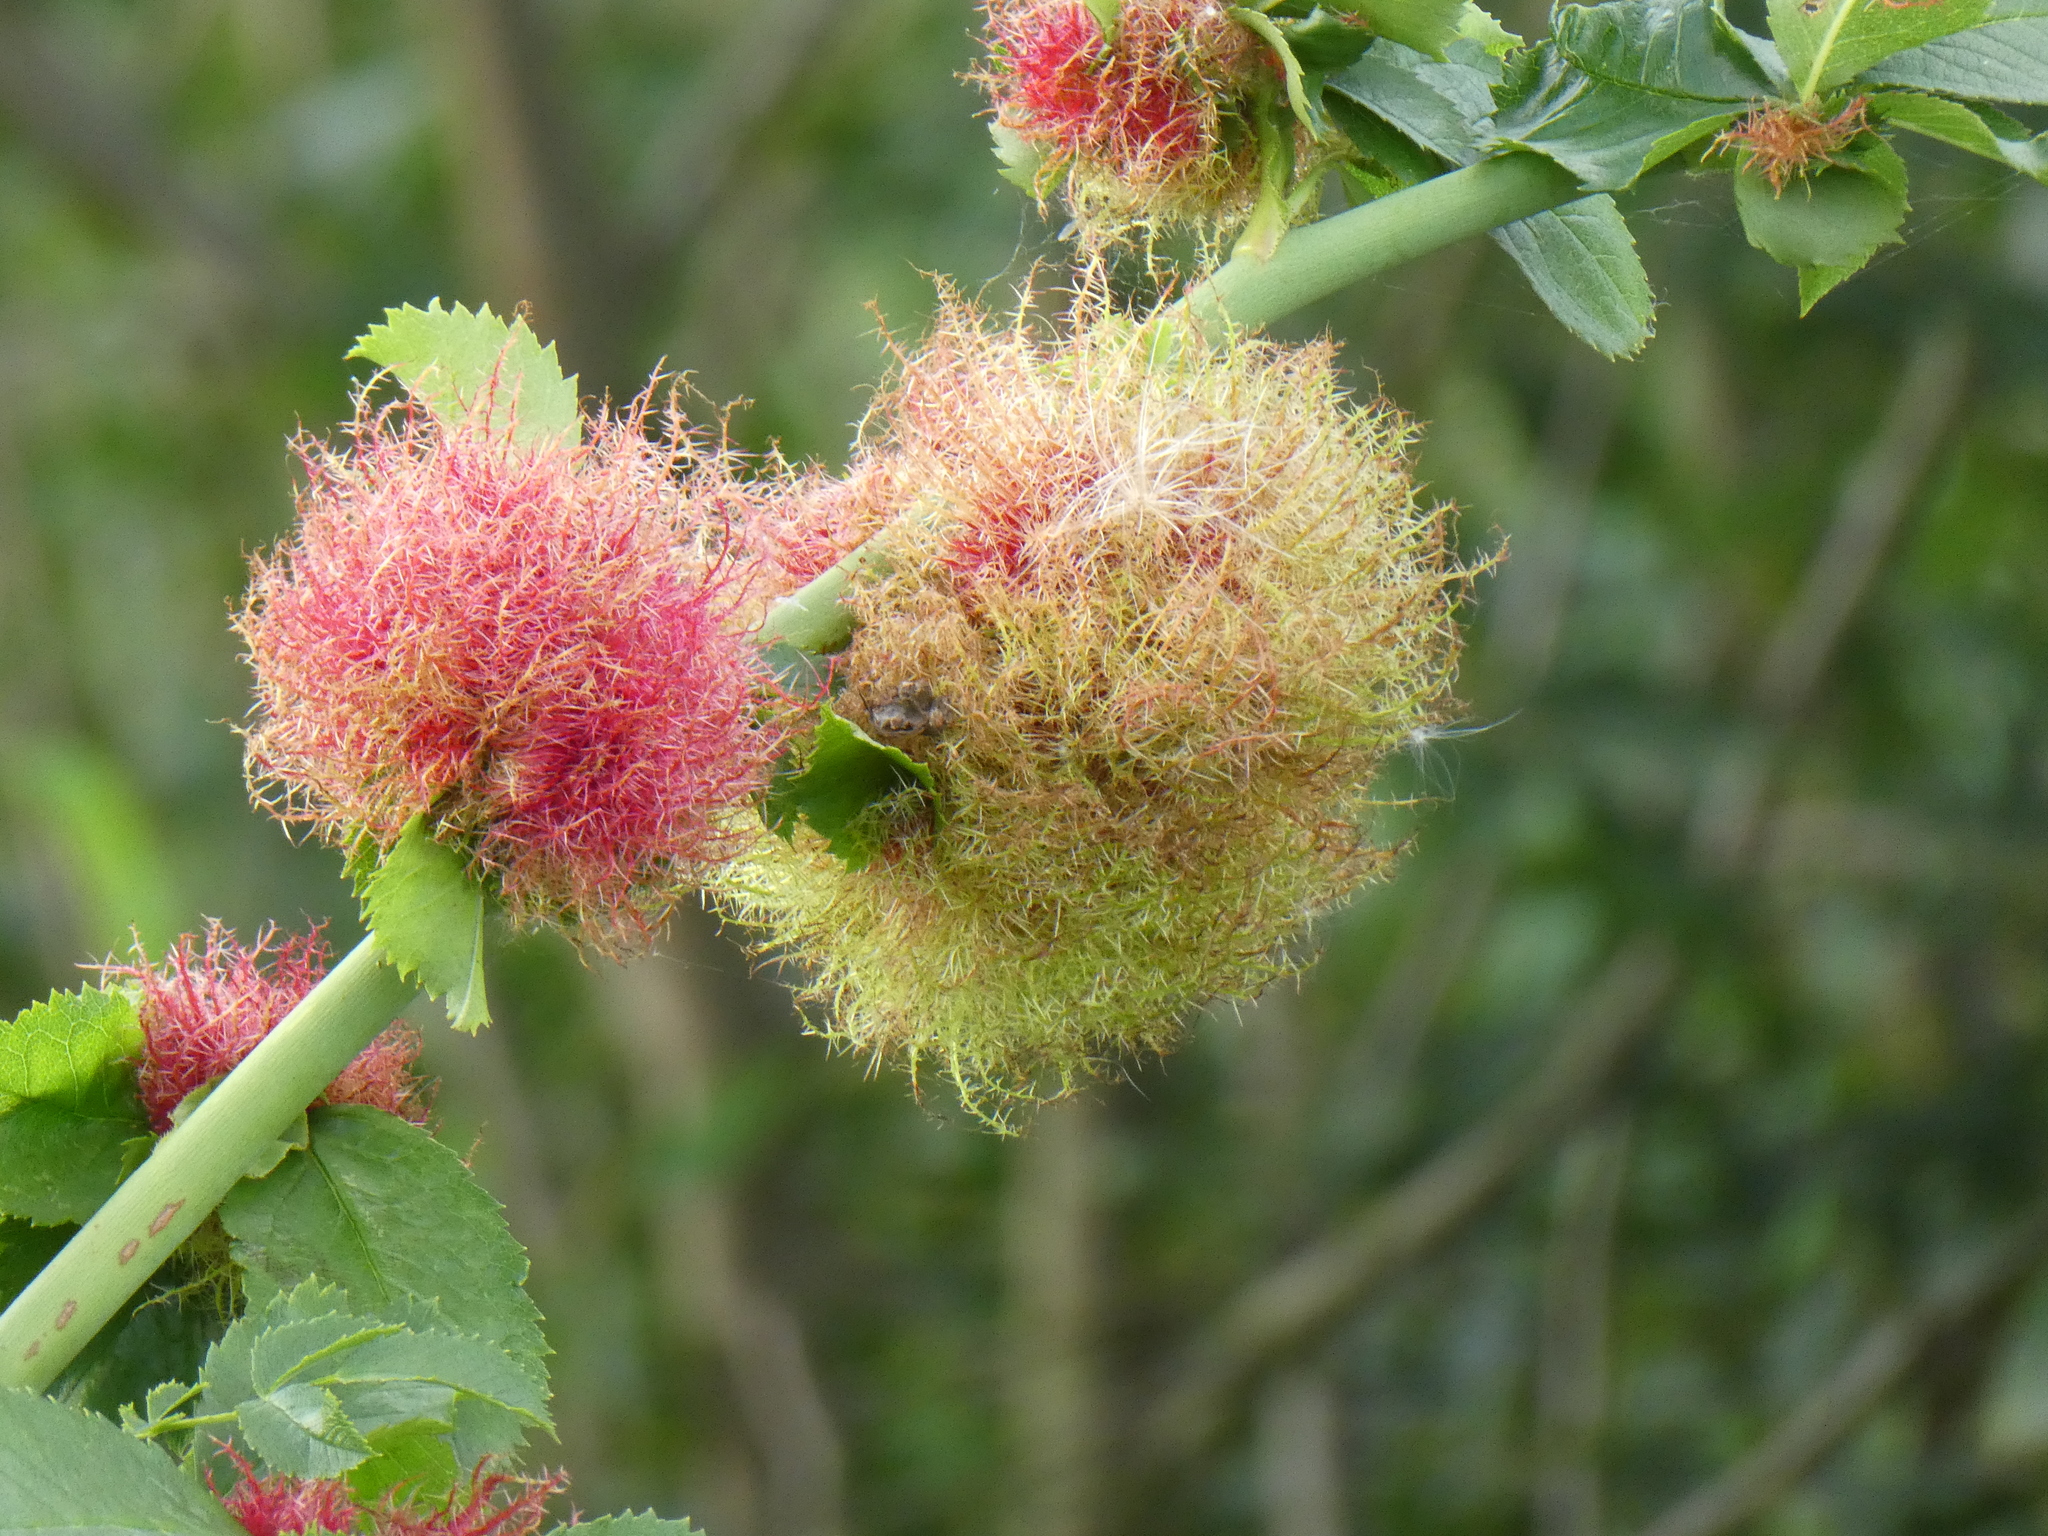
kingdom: Animalia
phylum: Arthropoda
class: Insecta
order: Hymenoptera
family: Cynipidae
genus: Diplolepis
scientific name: Diplolepis rosae
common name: Bedeguar gall
